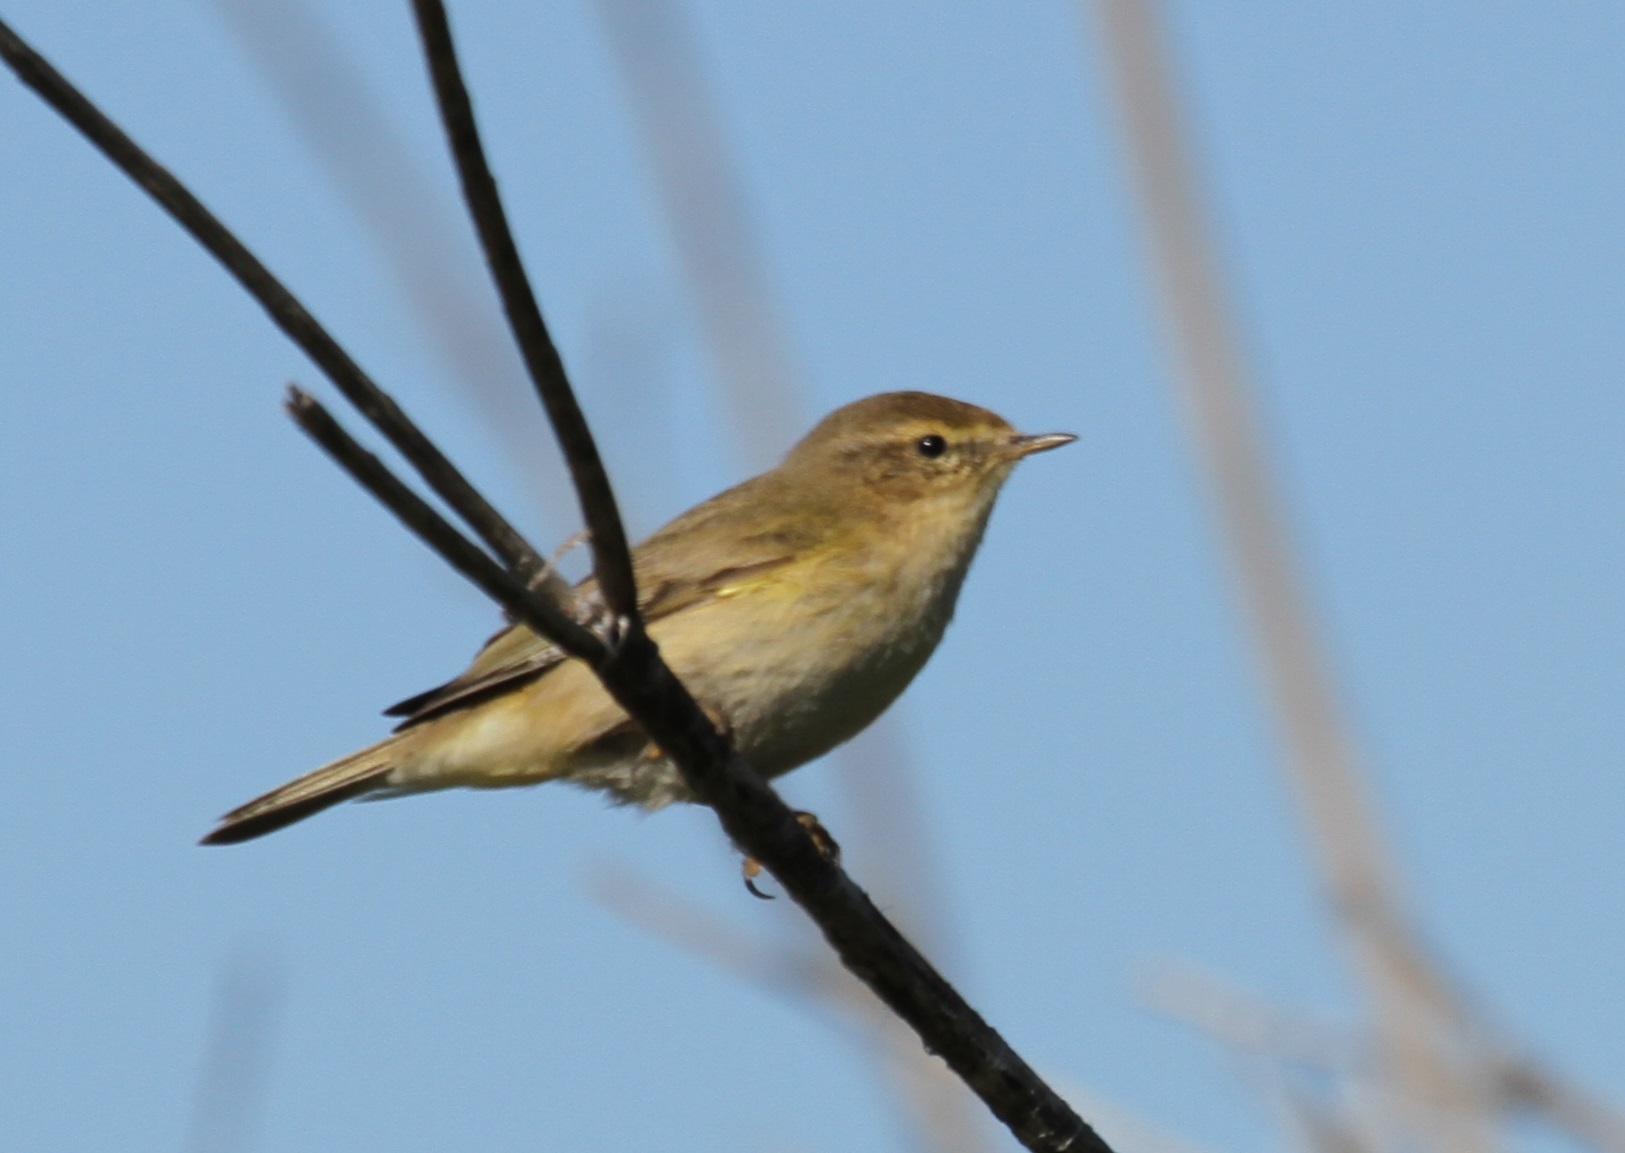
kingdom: Animalia
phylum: Chordata
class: Aves
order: Passeriformes
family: Phylloscopidae
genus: Phylloscopus
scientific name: Phylloscopus collybita
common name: Common chiffchaff
